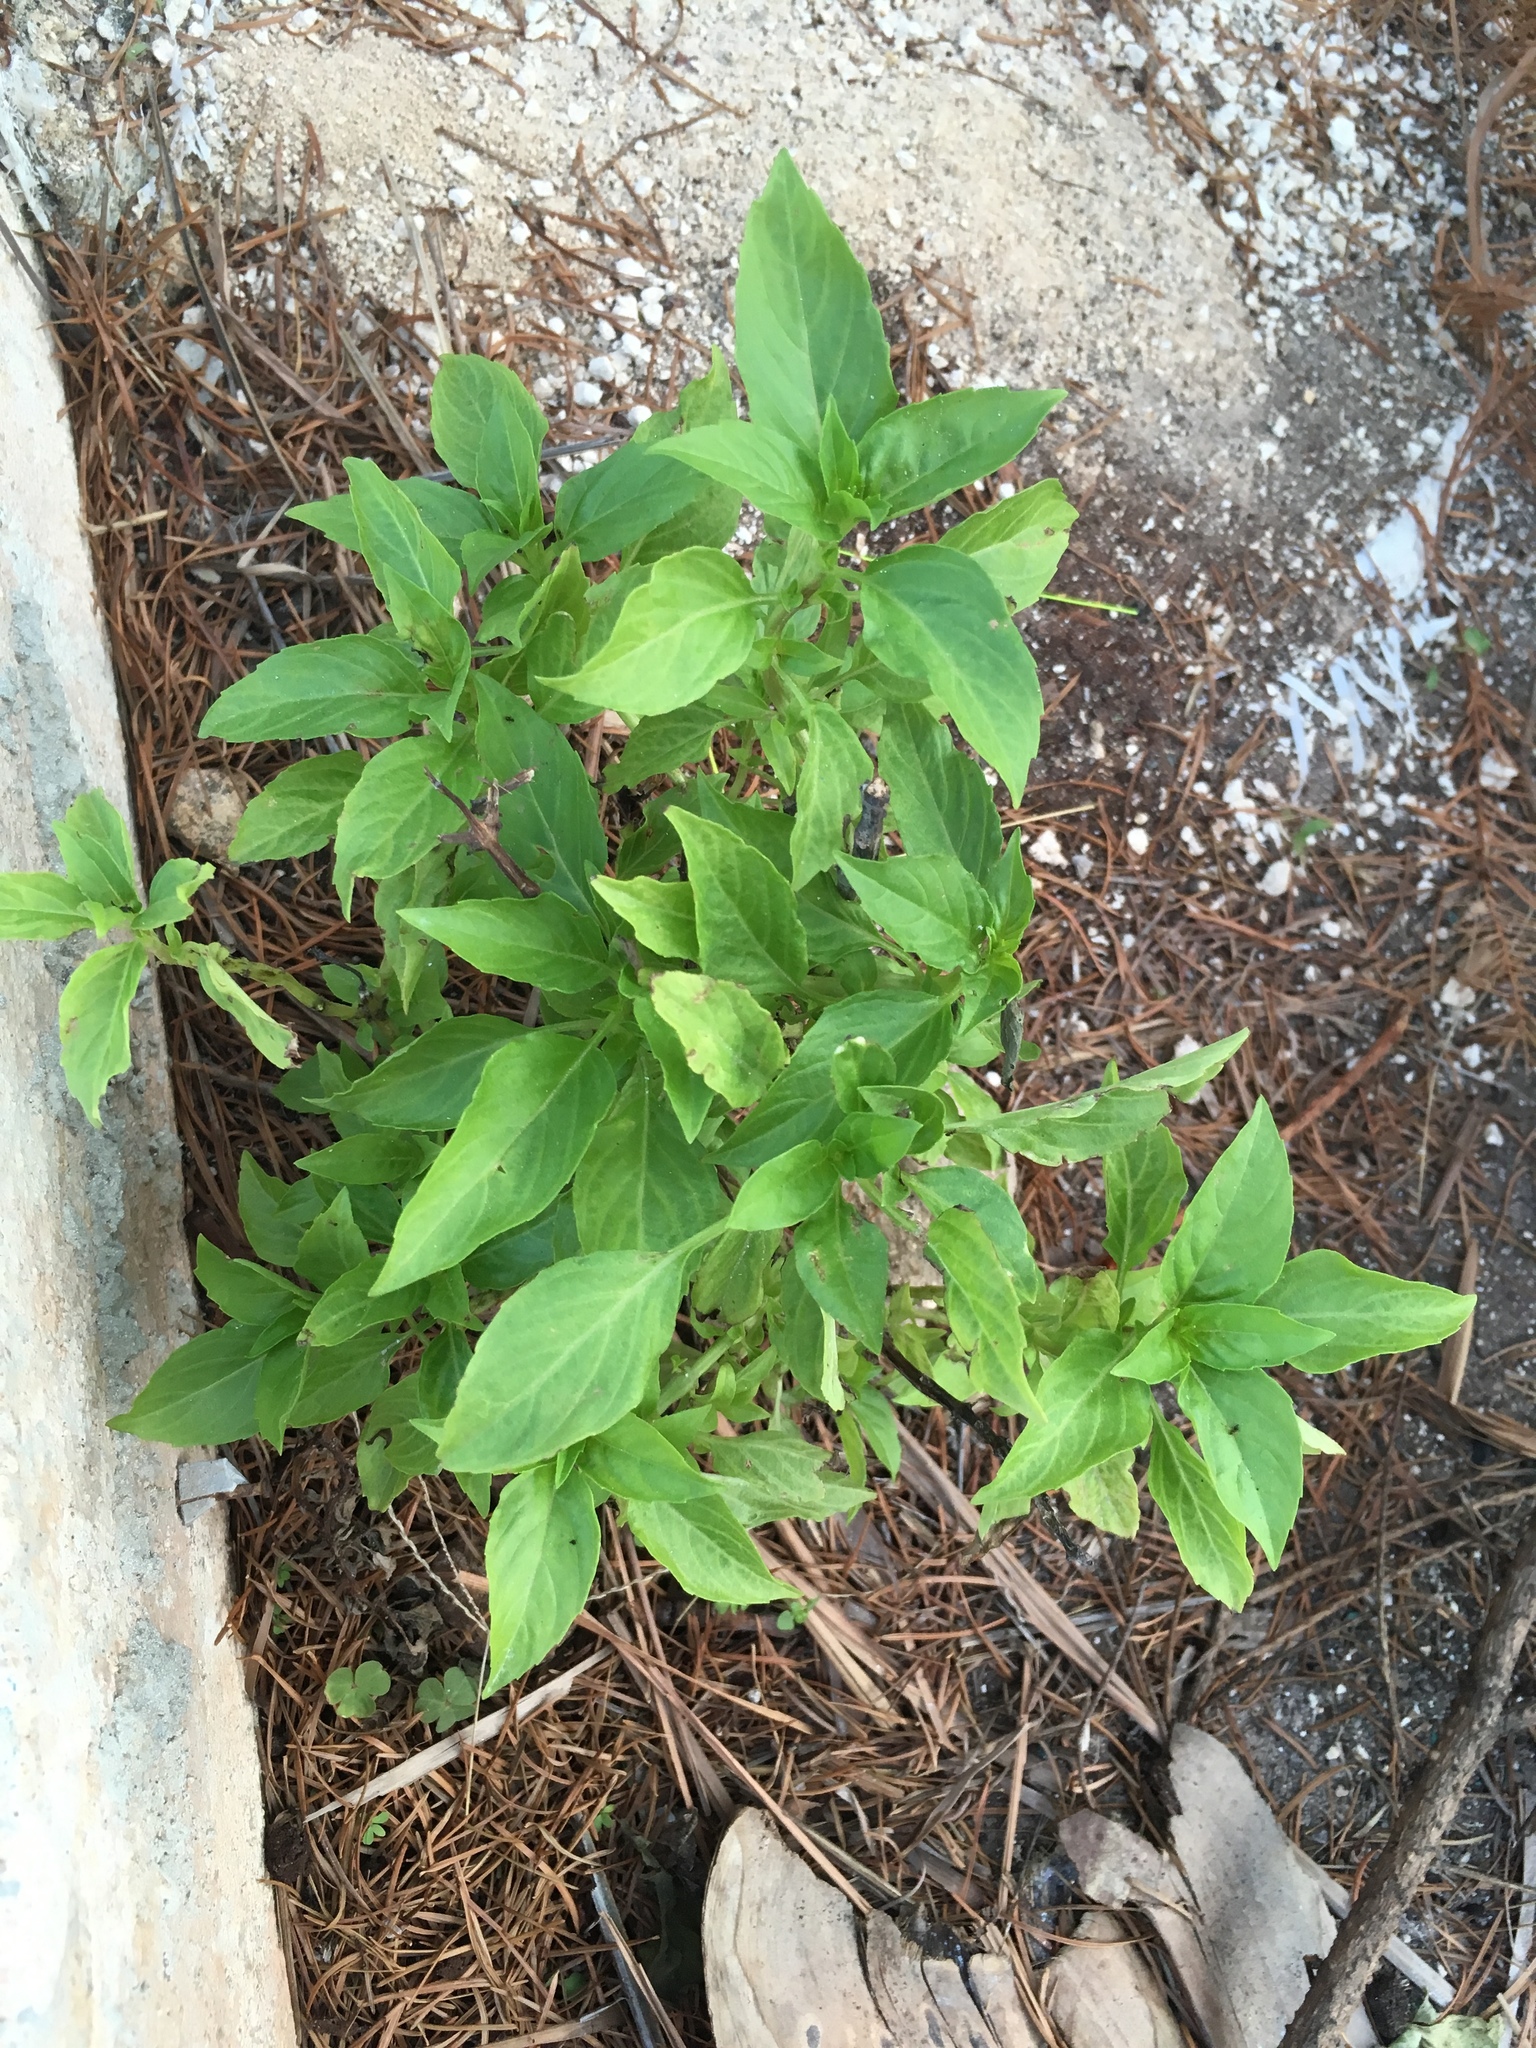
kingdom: Plantae
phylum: Tracheophyta
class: Magnoliopsida
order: Lamiales
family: Lamiaceae
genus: Ocimum
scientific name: Ocimum basilicum
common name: Sweet basil
